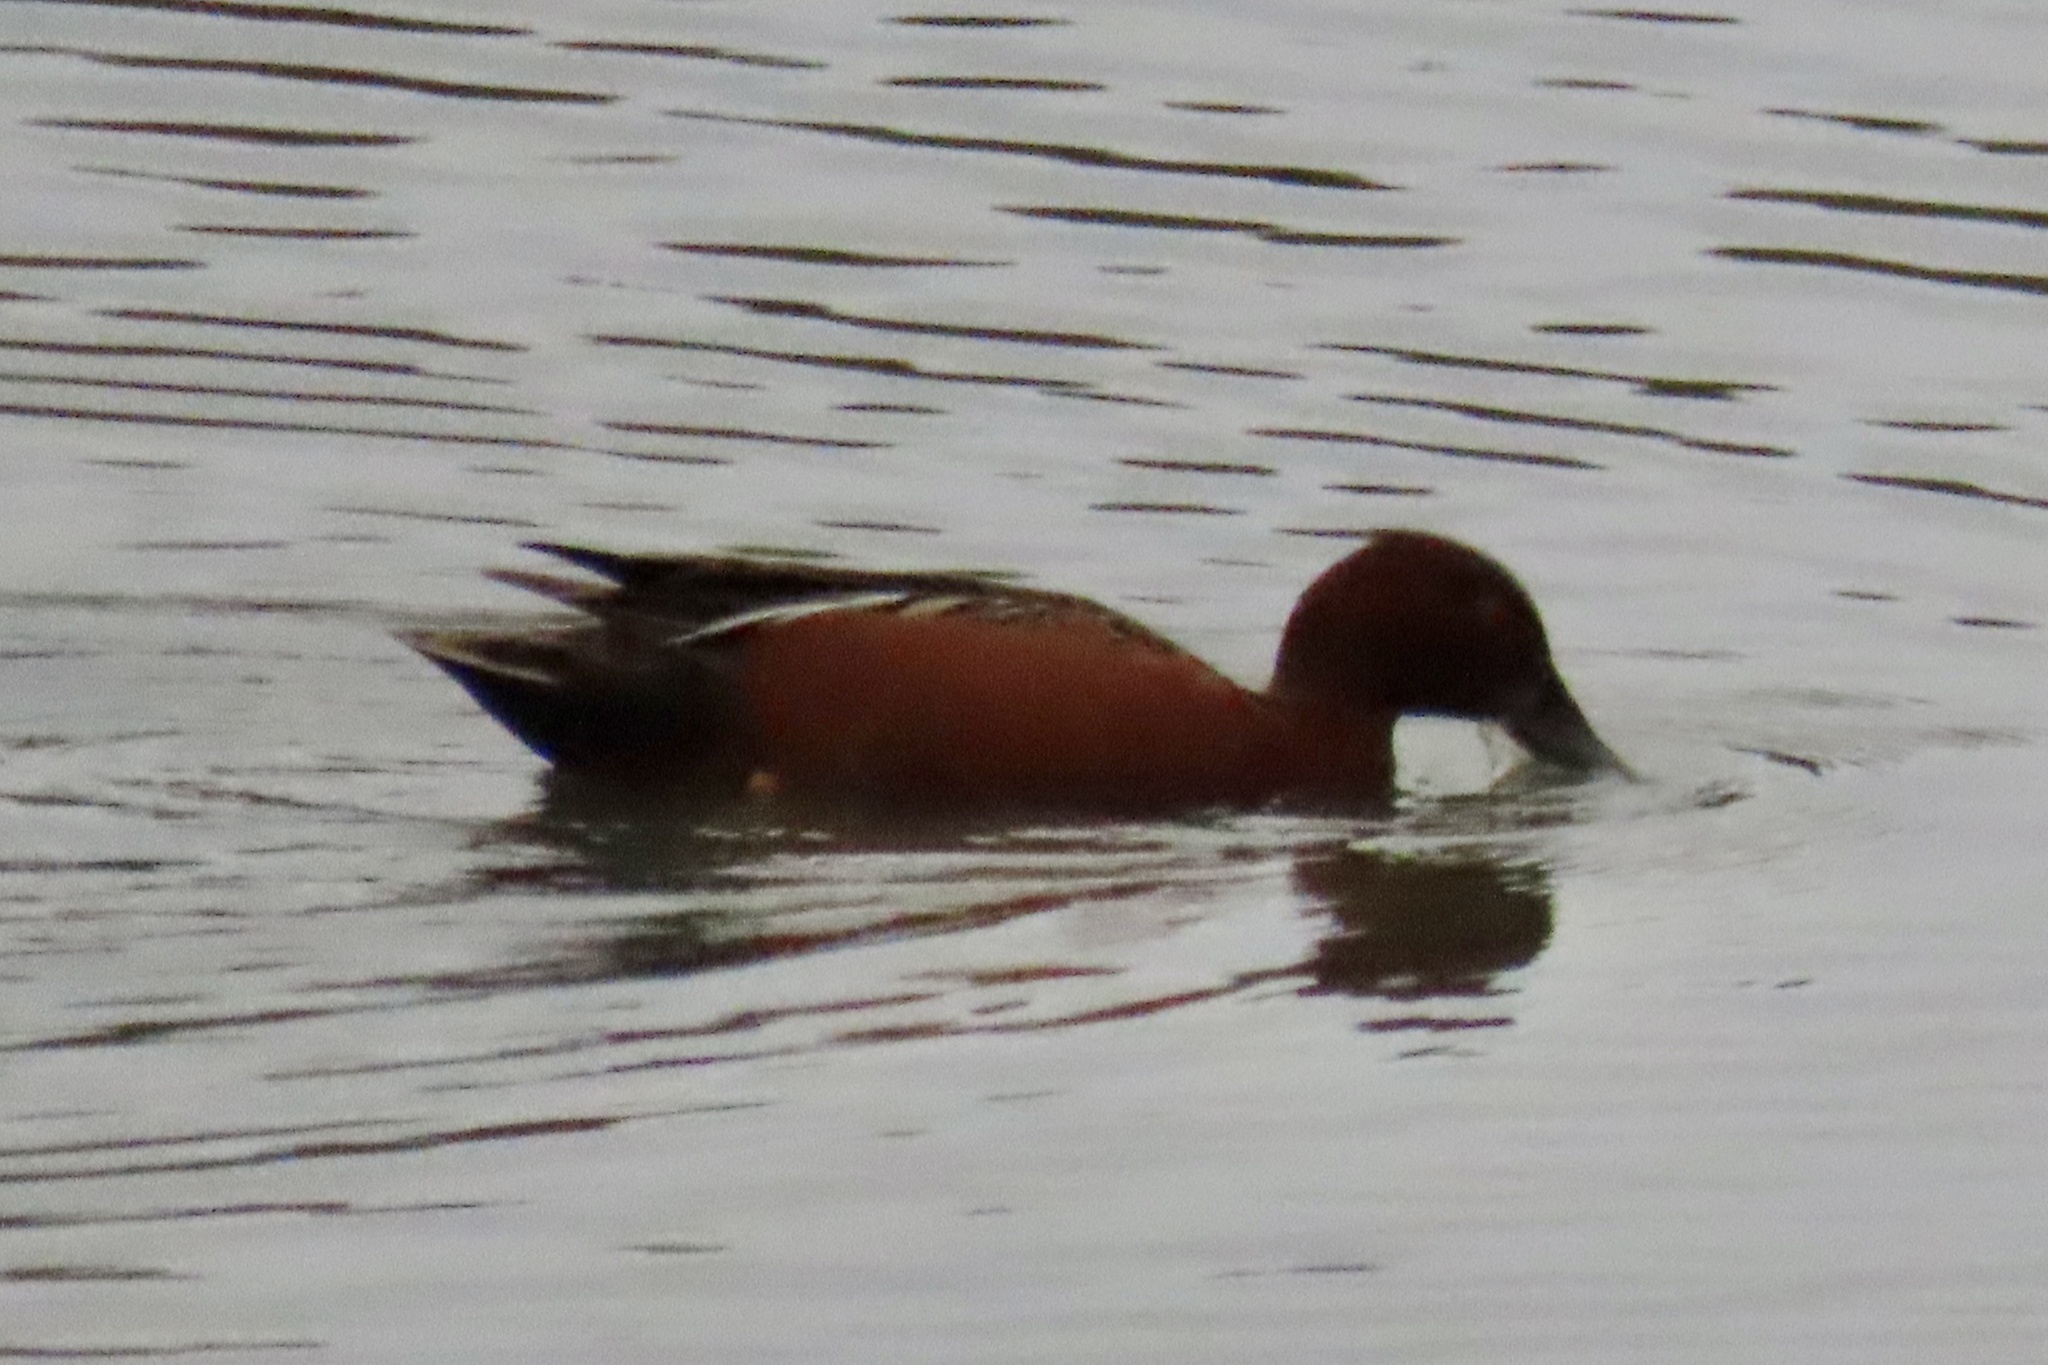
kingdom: Animalia
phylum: Chordata
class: Aves
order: Anseriformes
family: Anatidae
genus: Spatula
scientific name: Spatula cyanoptera
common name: Cinnamon teal
